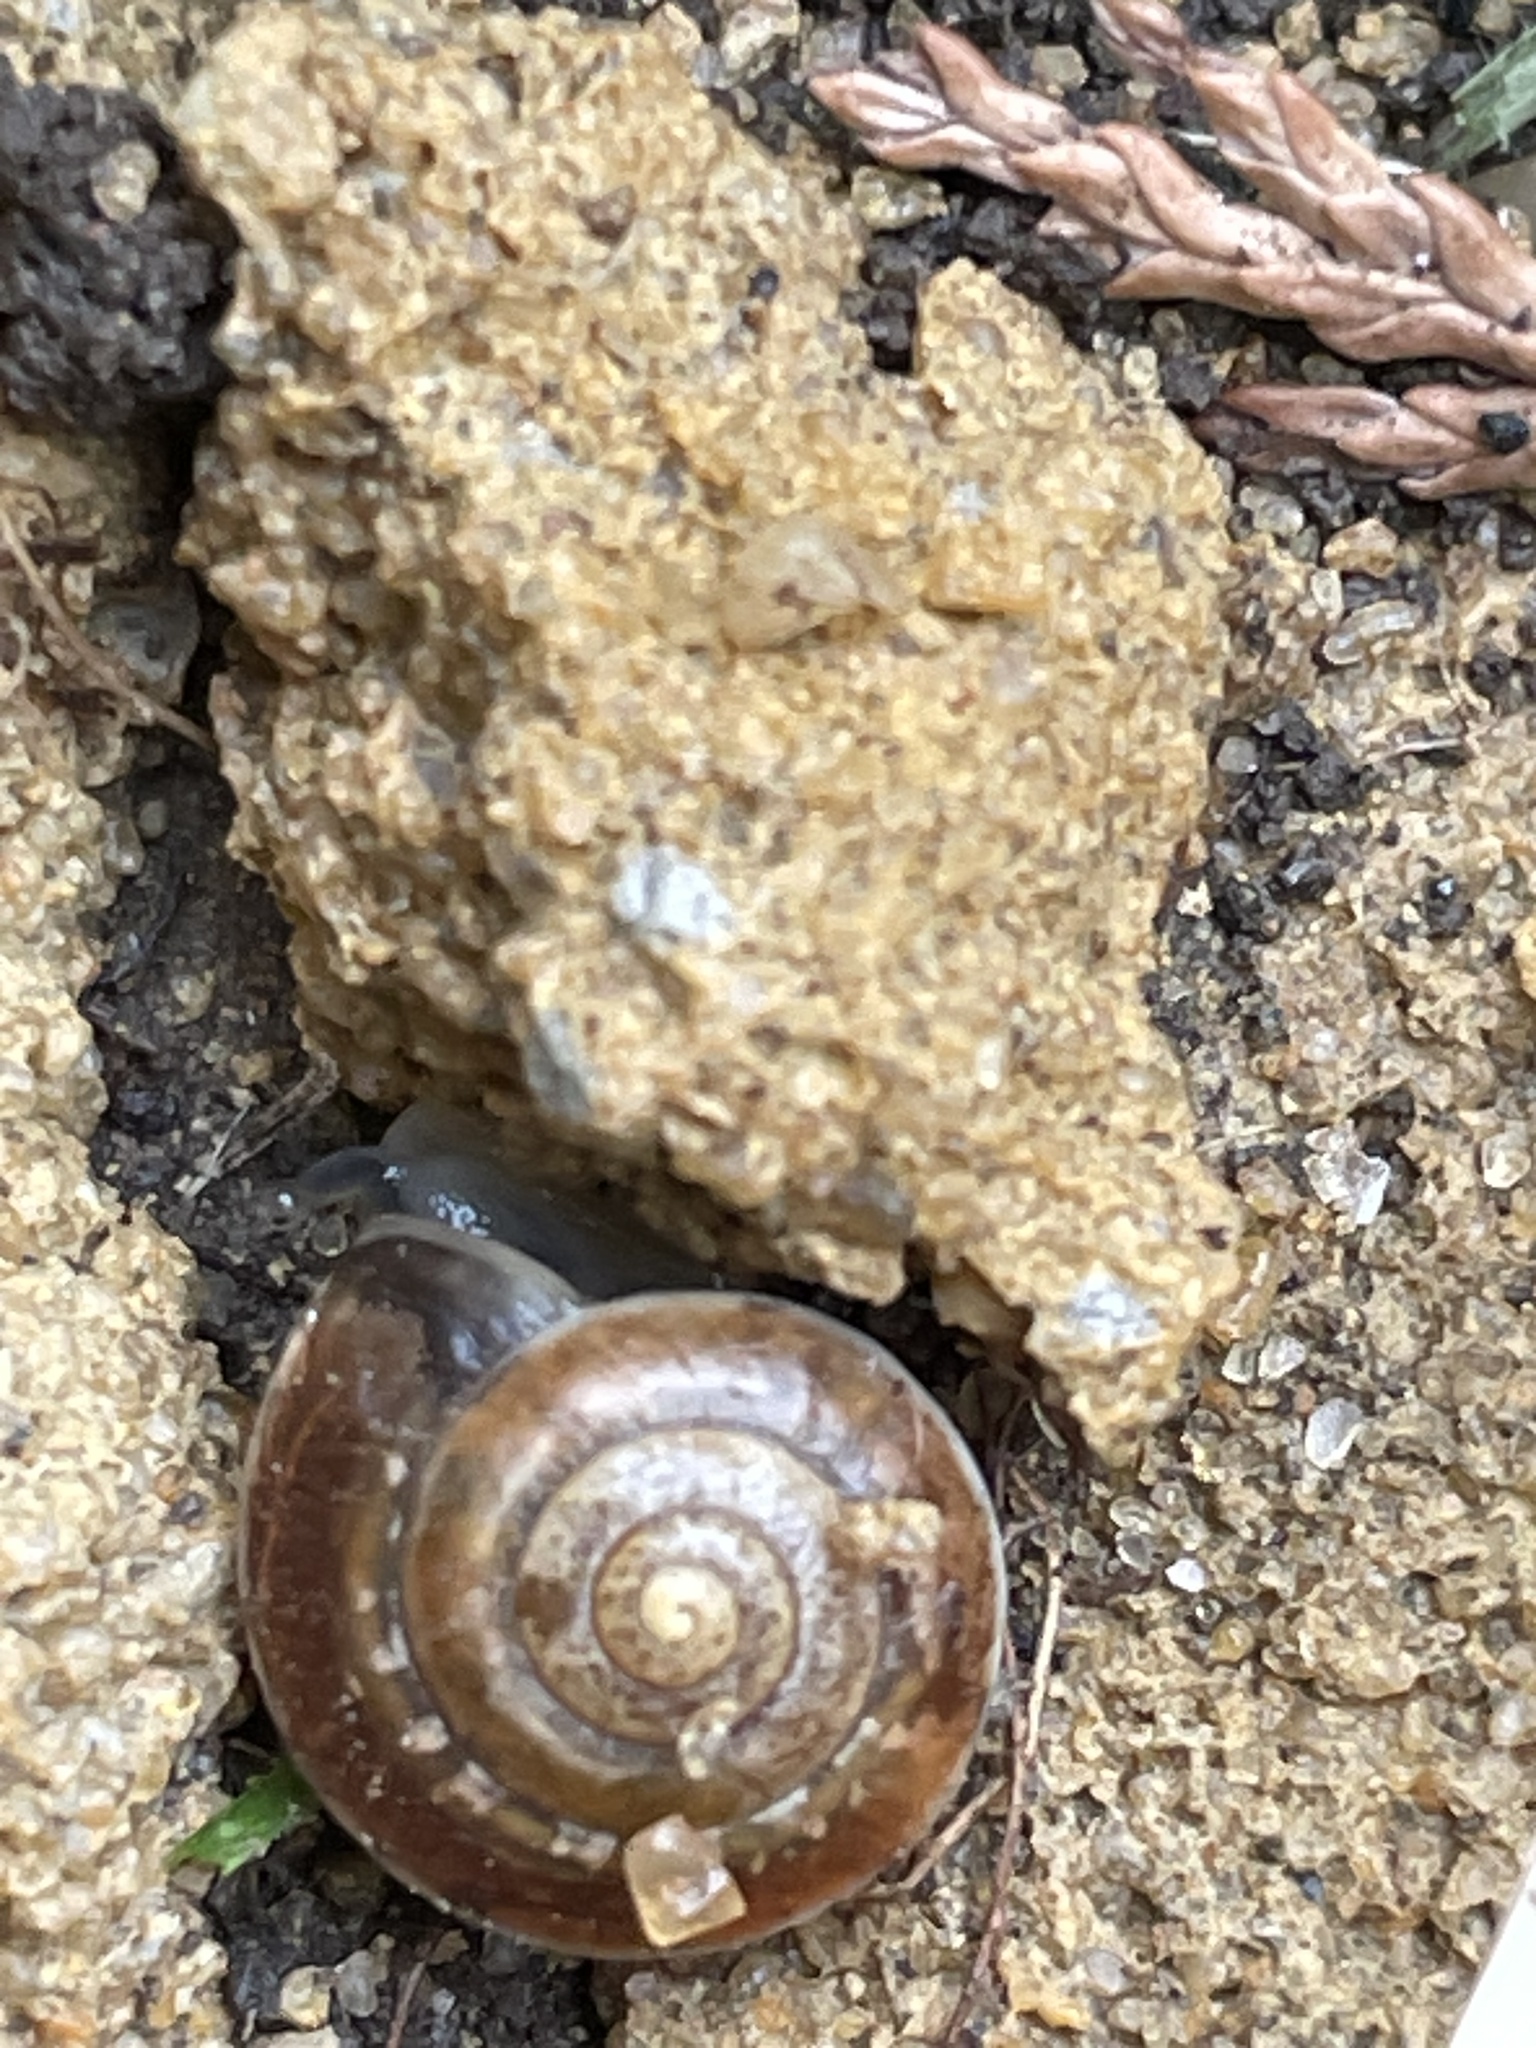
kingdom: Animalia
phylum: Mollusca
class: Gastropoda
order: Stylommatophora
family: Hygromiidae
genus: Hygromia
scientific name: Hygromia cinctella
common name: Girdled snail
